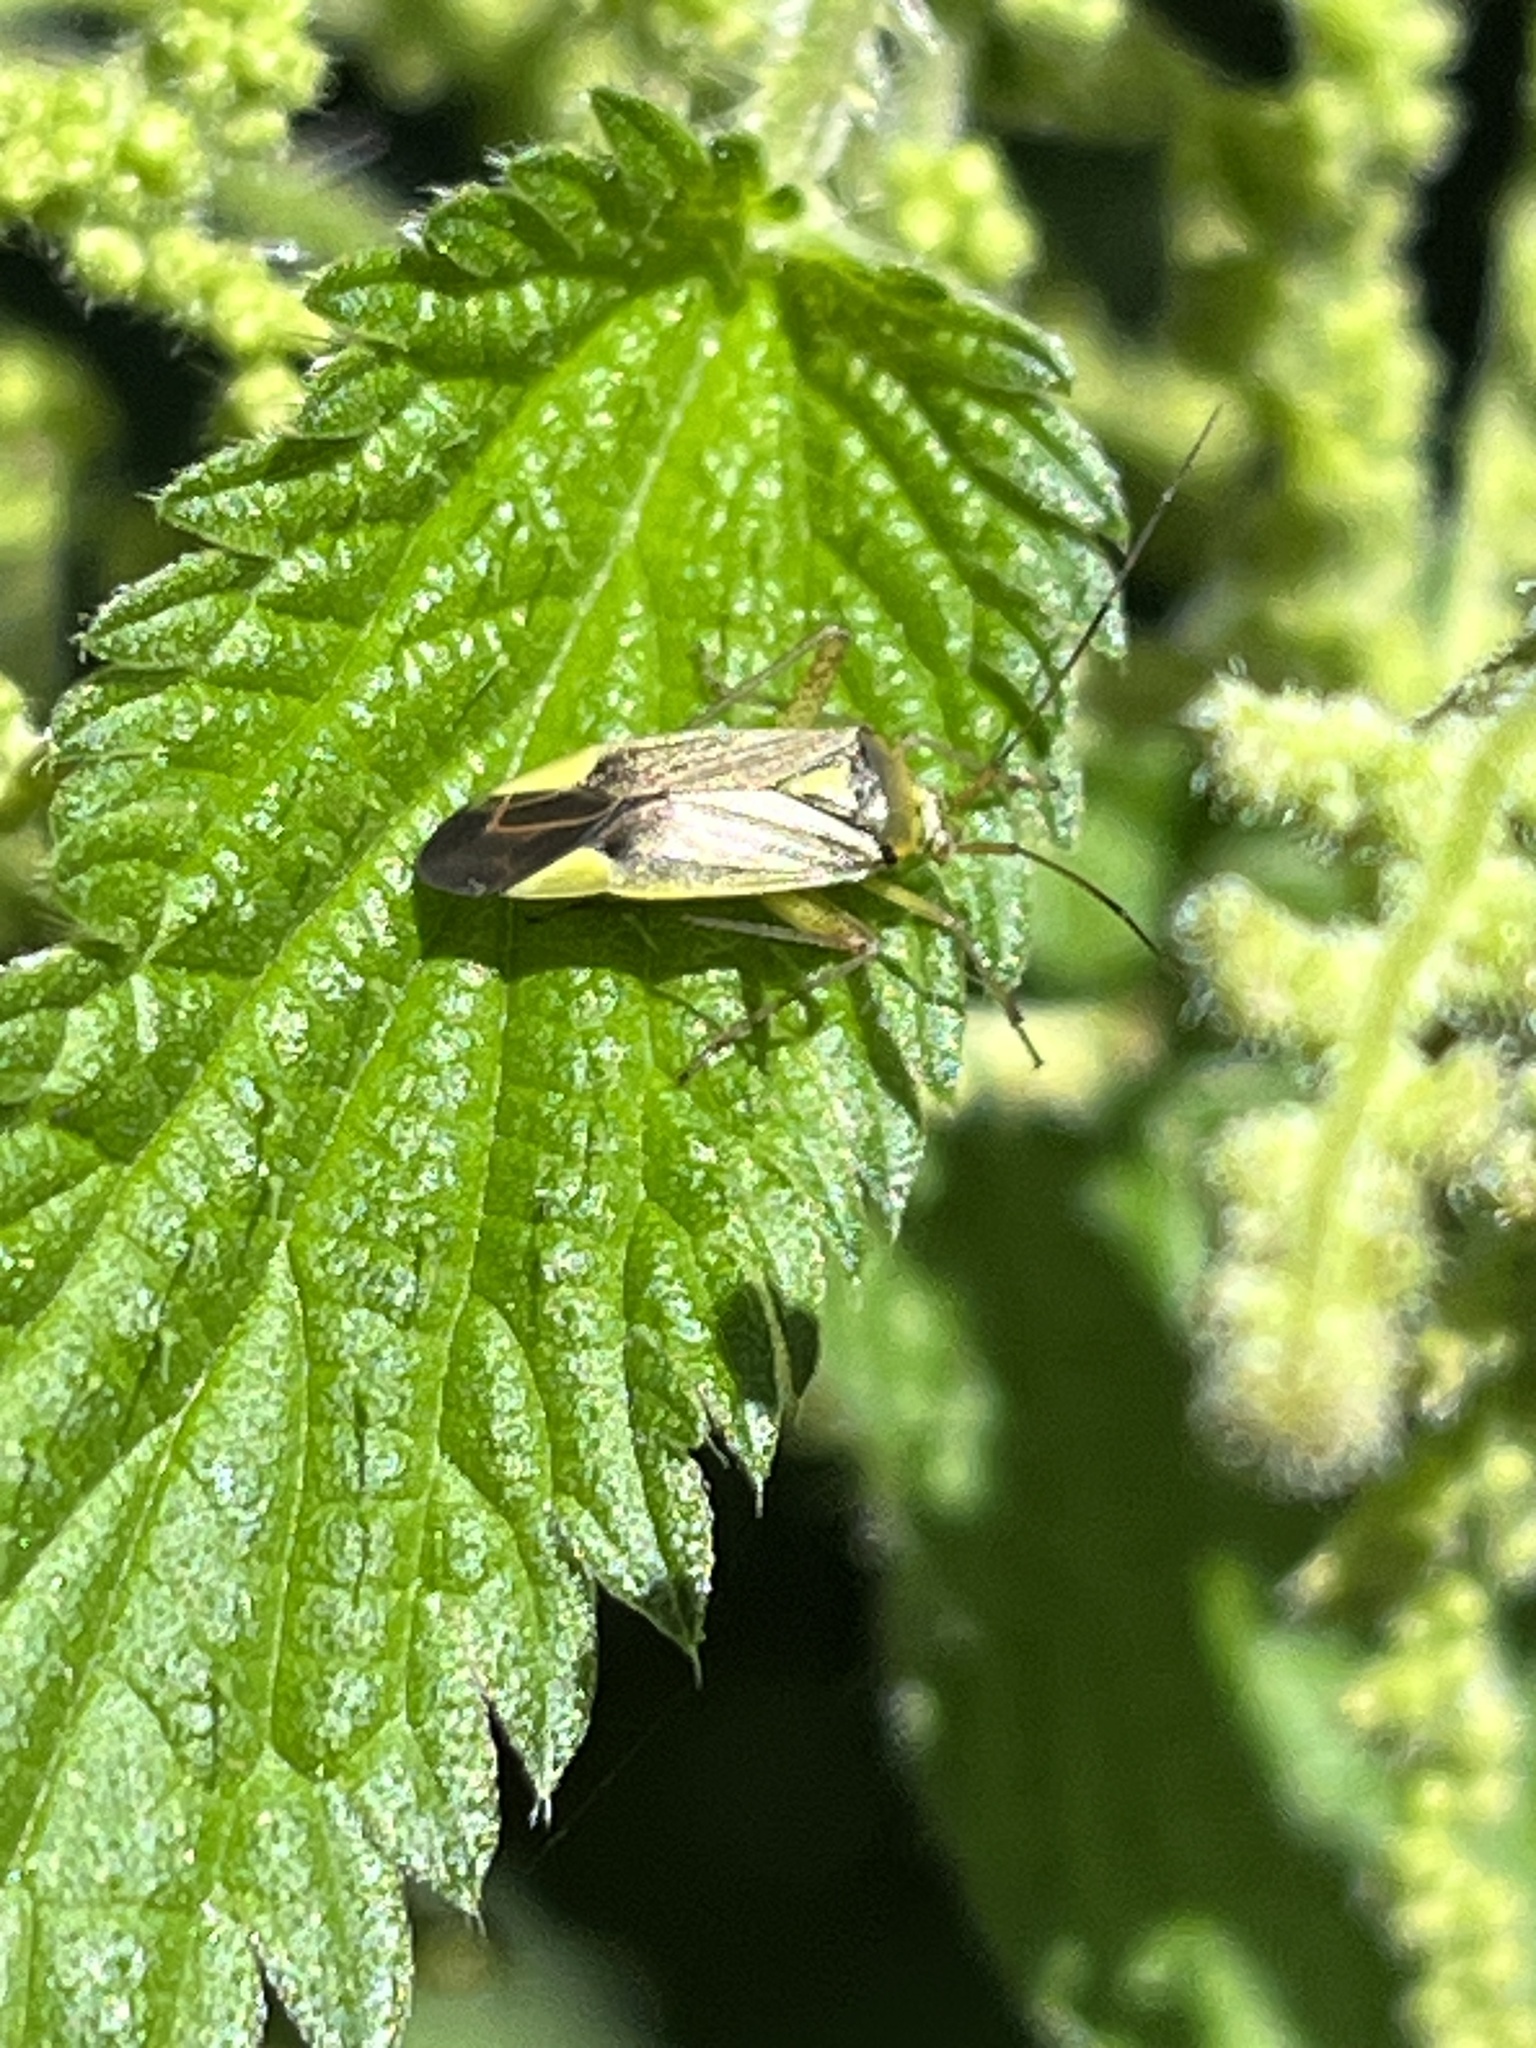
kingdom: Animalia
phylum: Arthropoda
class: Insecta
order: Hemiptera
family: Miridae
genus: Closterotomus
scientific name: Closterotomus trivialis
